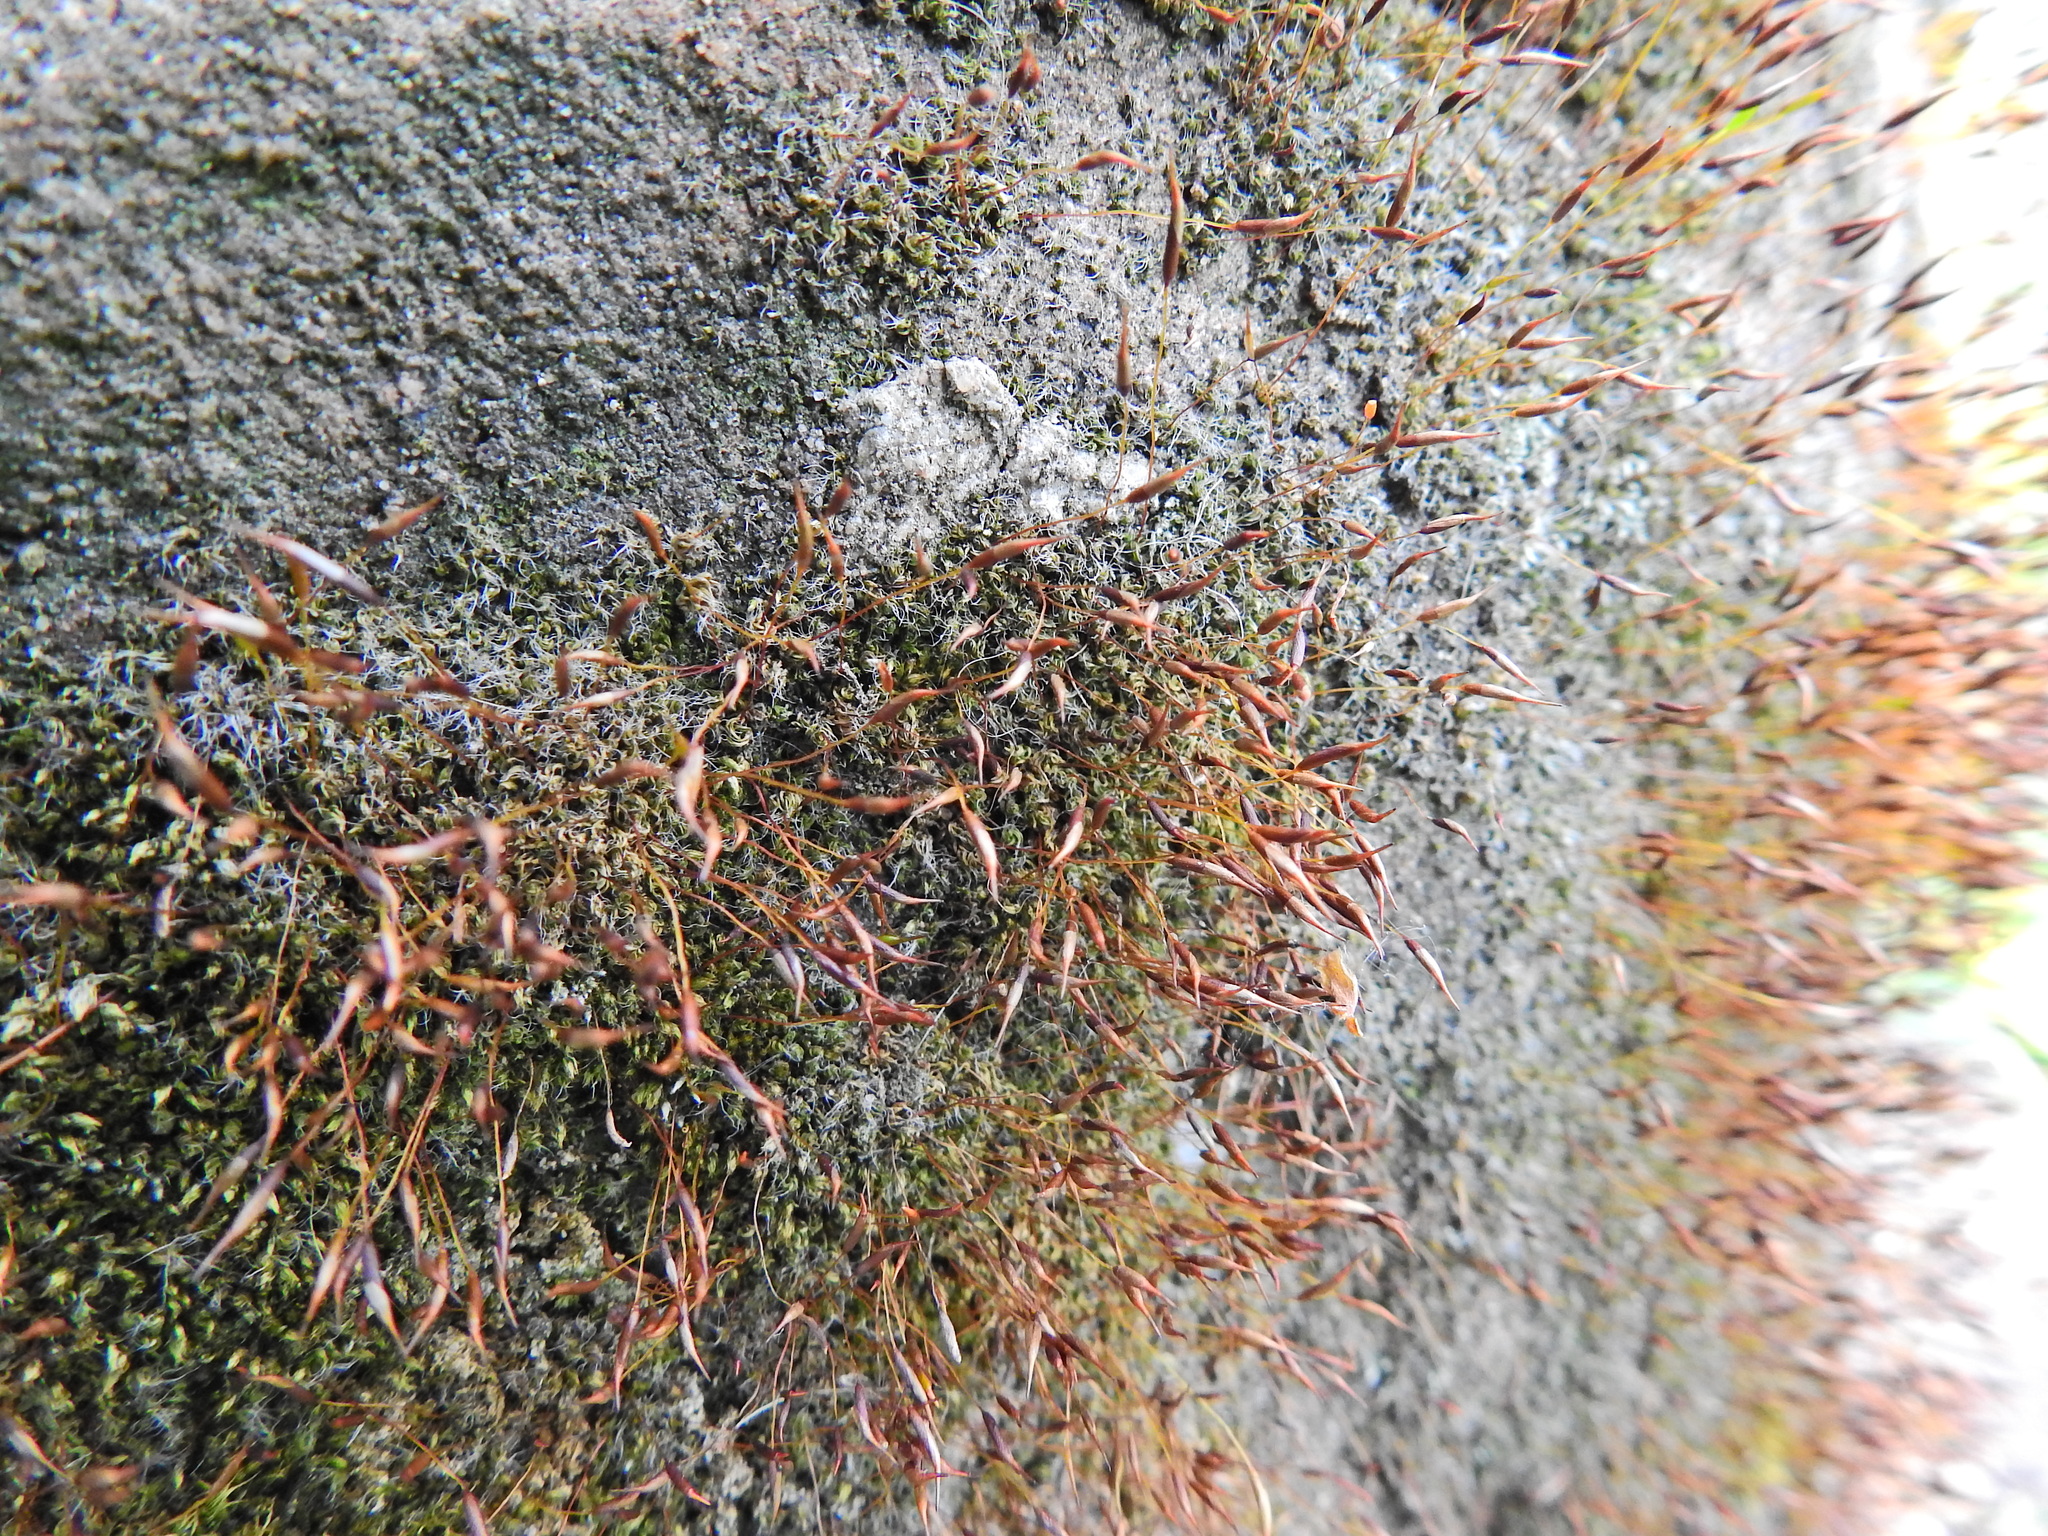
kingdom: Plantae
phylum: Bryophyta
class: Bryopsida
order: Pottiales
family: Pottiaceae
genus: Tortula
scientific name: Tortula muralis
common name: Wall screw-moss
